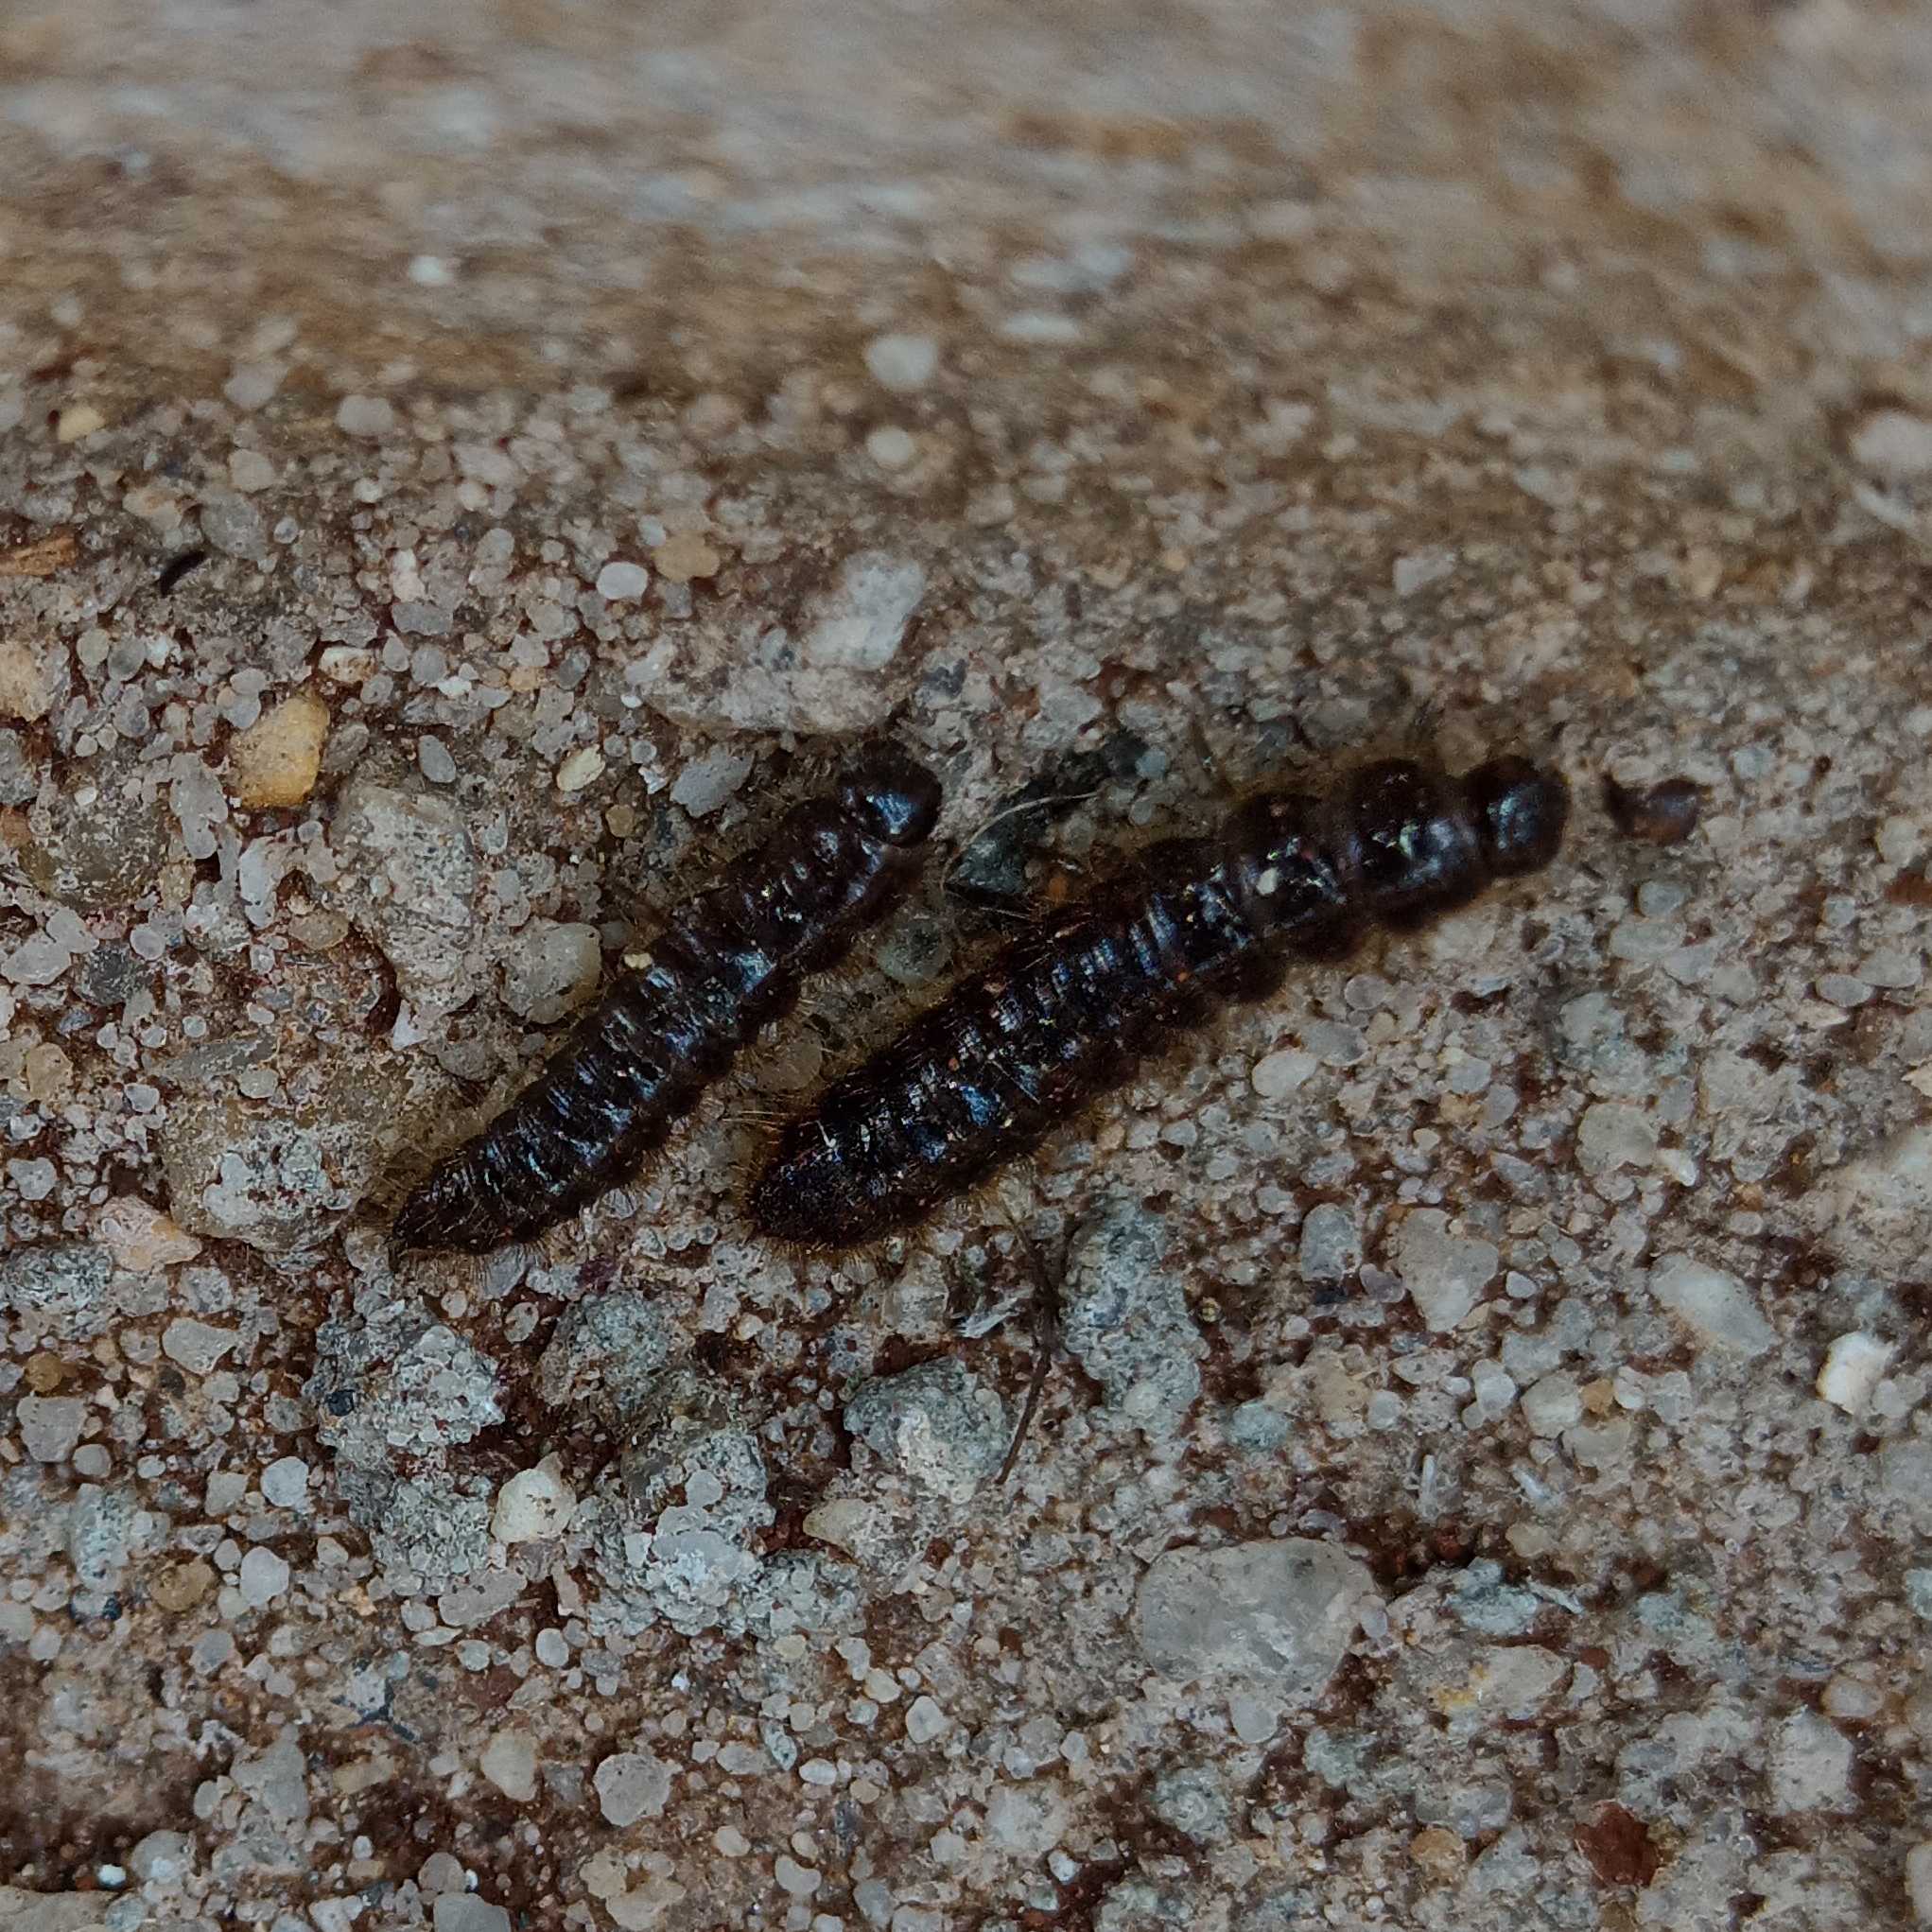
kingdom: Animalia
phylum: Arthropoda
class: Insecta
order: Coleoptera
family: Tenebrionidae
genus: Lagria
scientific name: Lagria villosa
